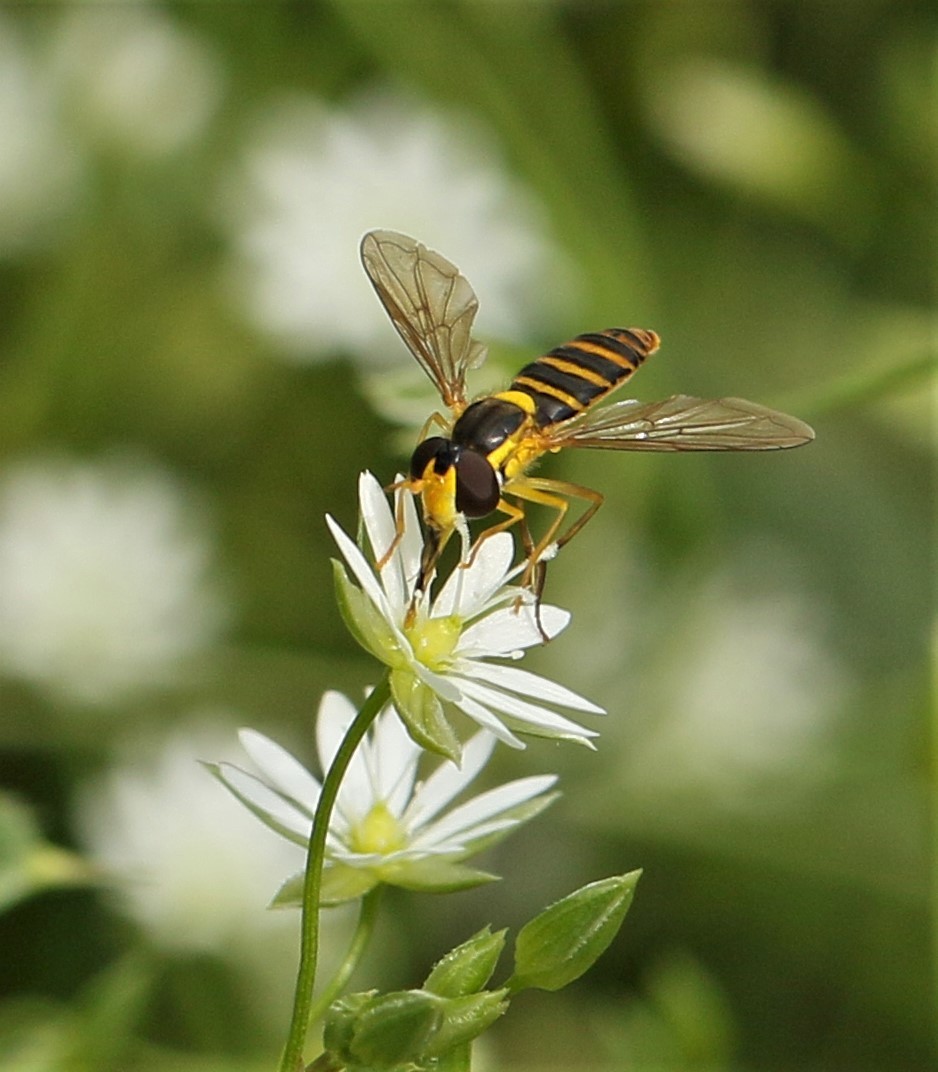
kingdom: Animalia
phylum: Arthropoda
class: Insecta
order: Diptera
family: Syrphidae
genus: Sphaerophoria
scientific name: Sphaerophoria
